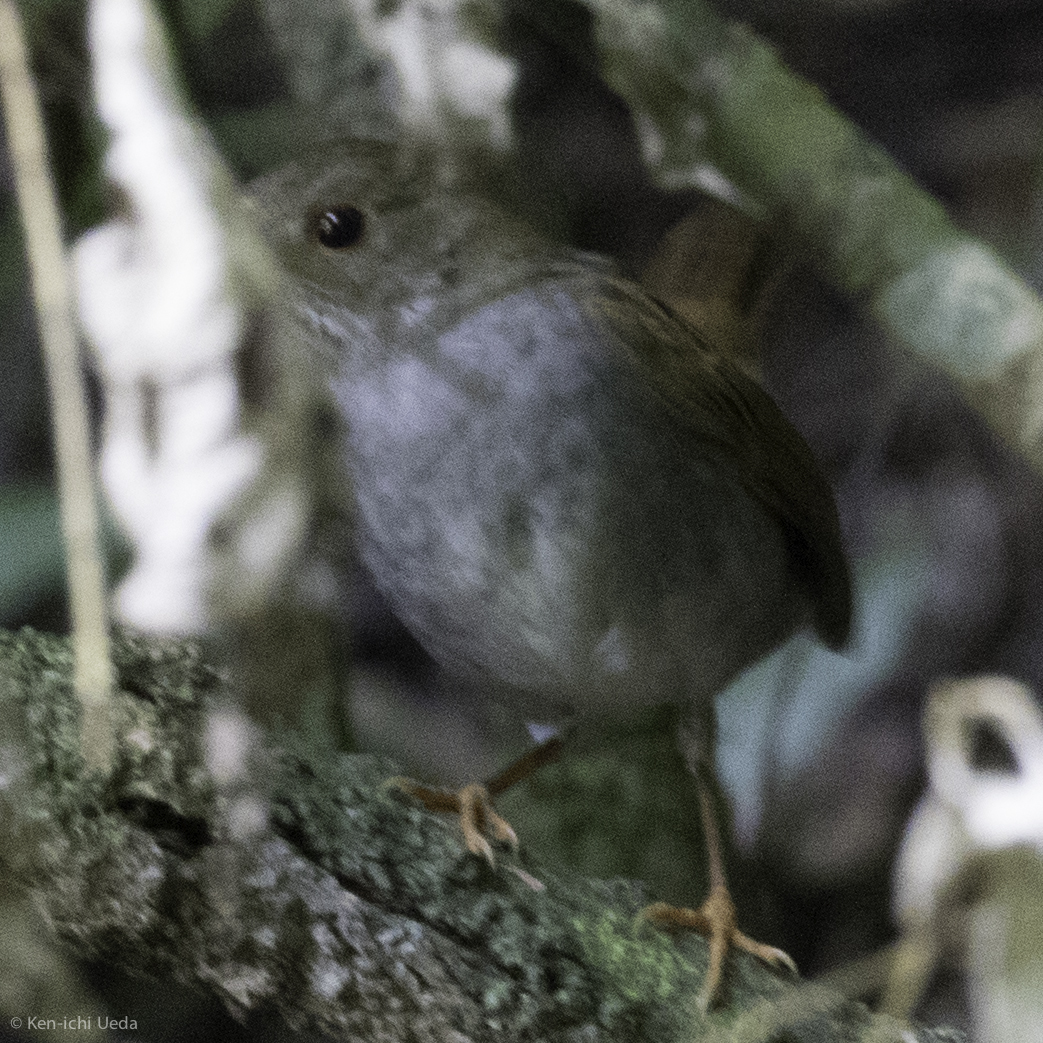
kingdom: Animalia
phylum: Chordata
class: Aves
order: Passeriformes
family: Turdidae
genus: Catharus
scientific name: Catharus frantzii
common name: Ruddy-capped nightingale-thrush
